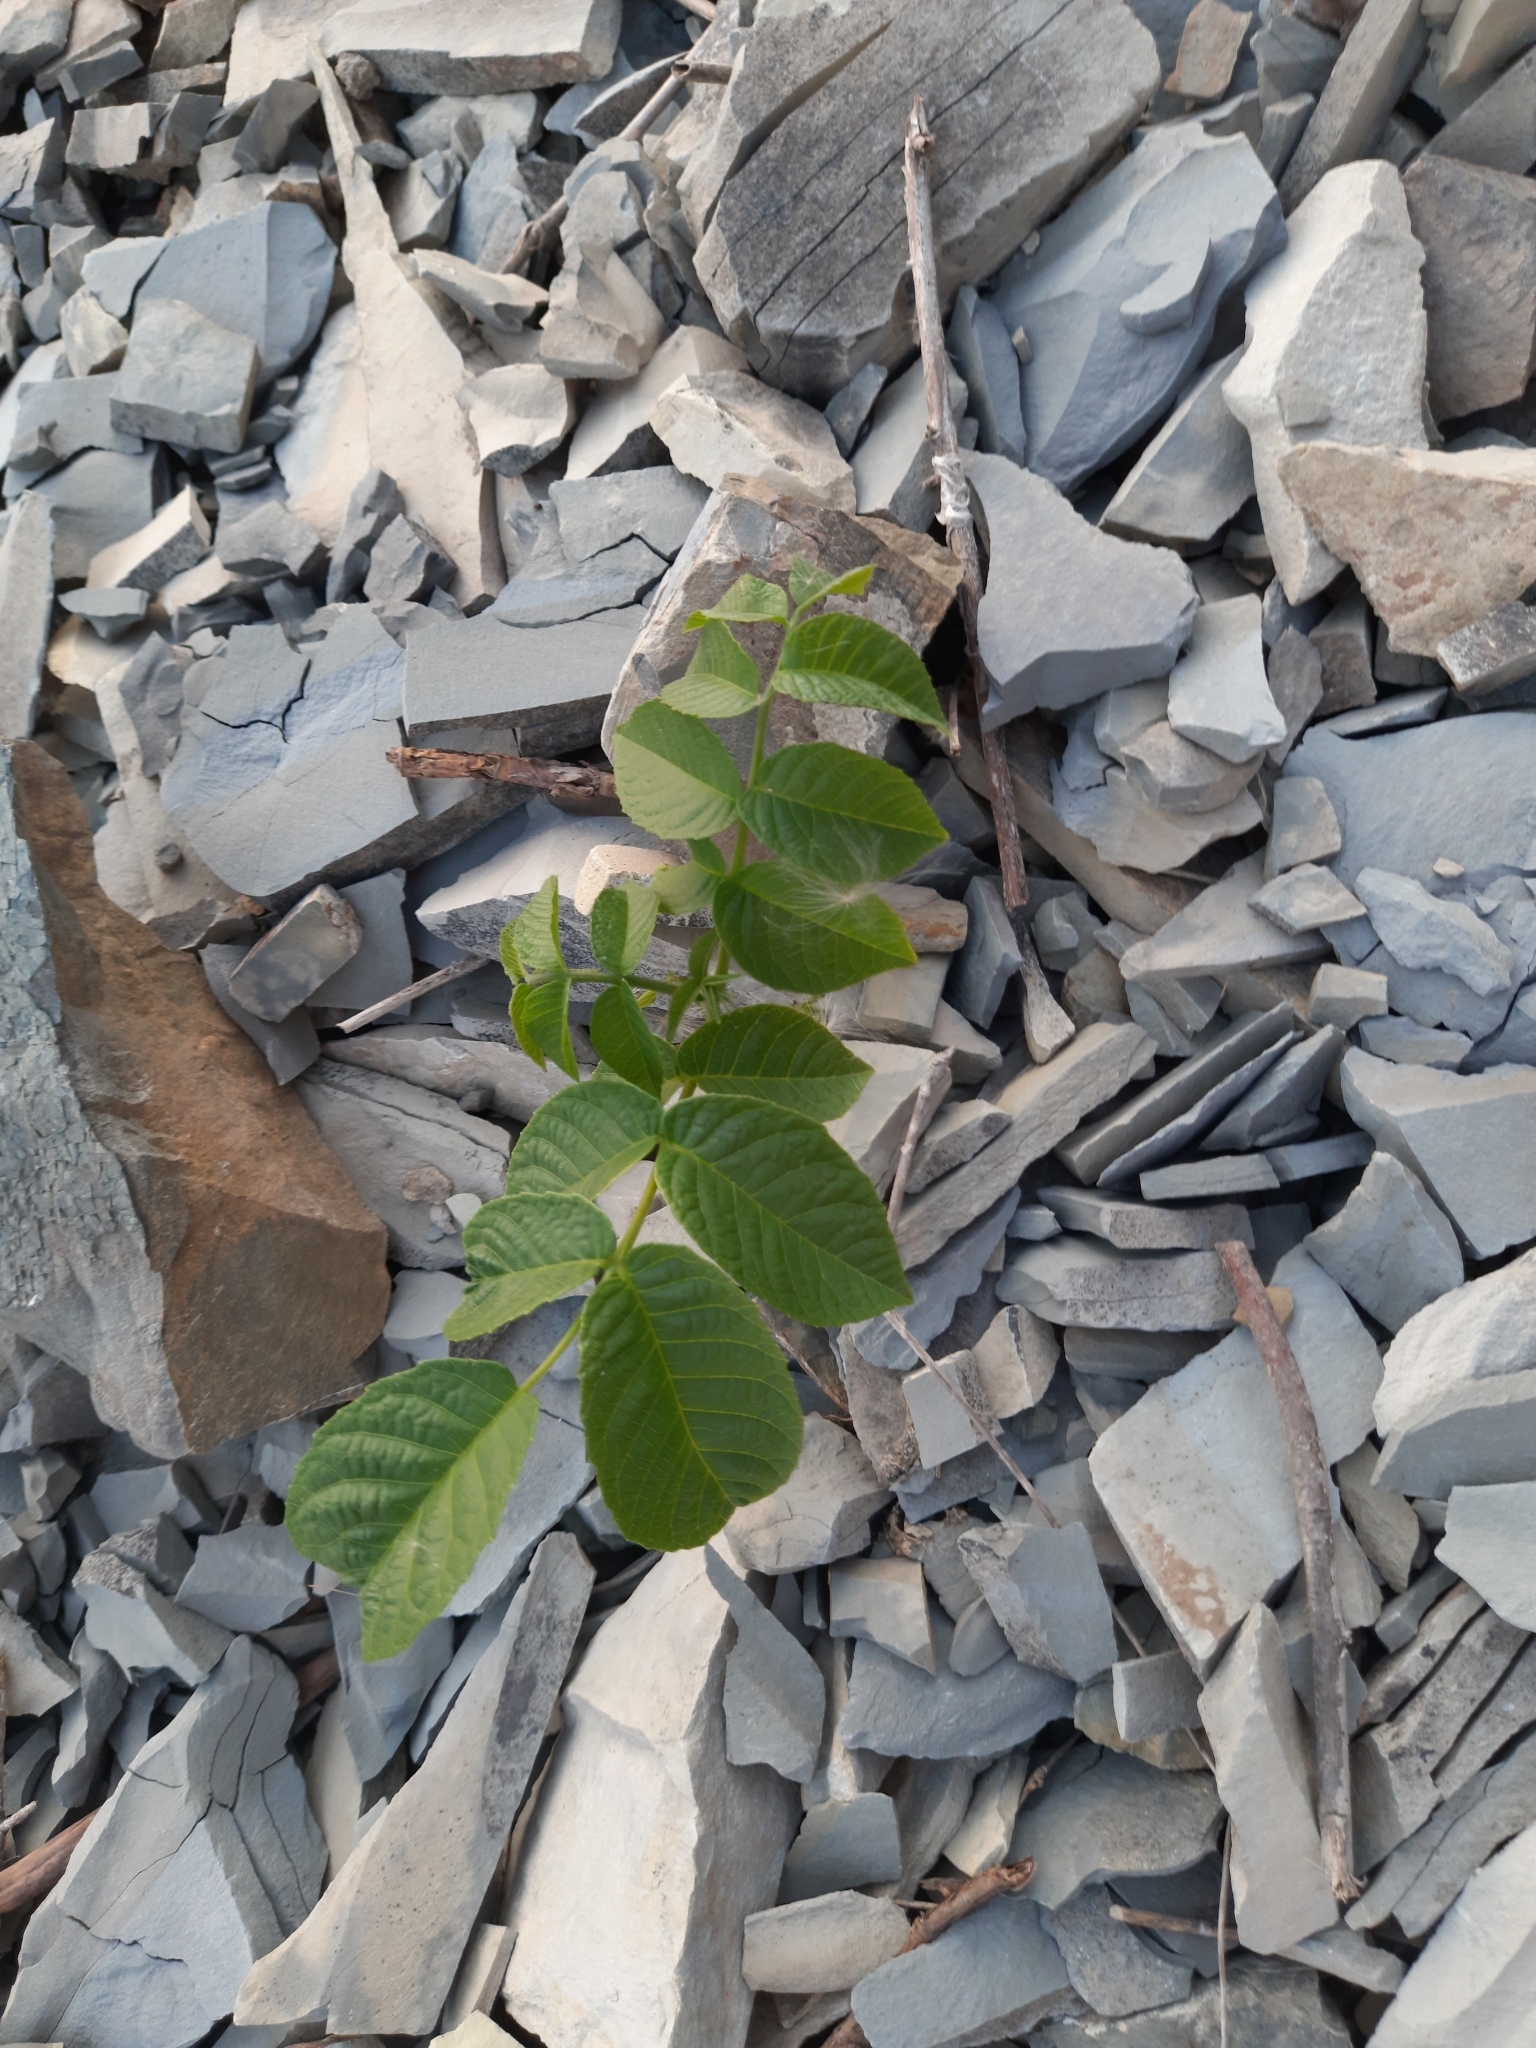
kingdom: Plantae
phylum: Tracheophyta
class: Magnoliopsida
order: Fagales
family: Juglandaceae
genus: Juglans
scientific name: Juglans regia
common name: Walnut
